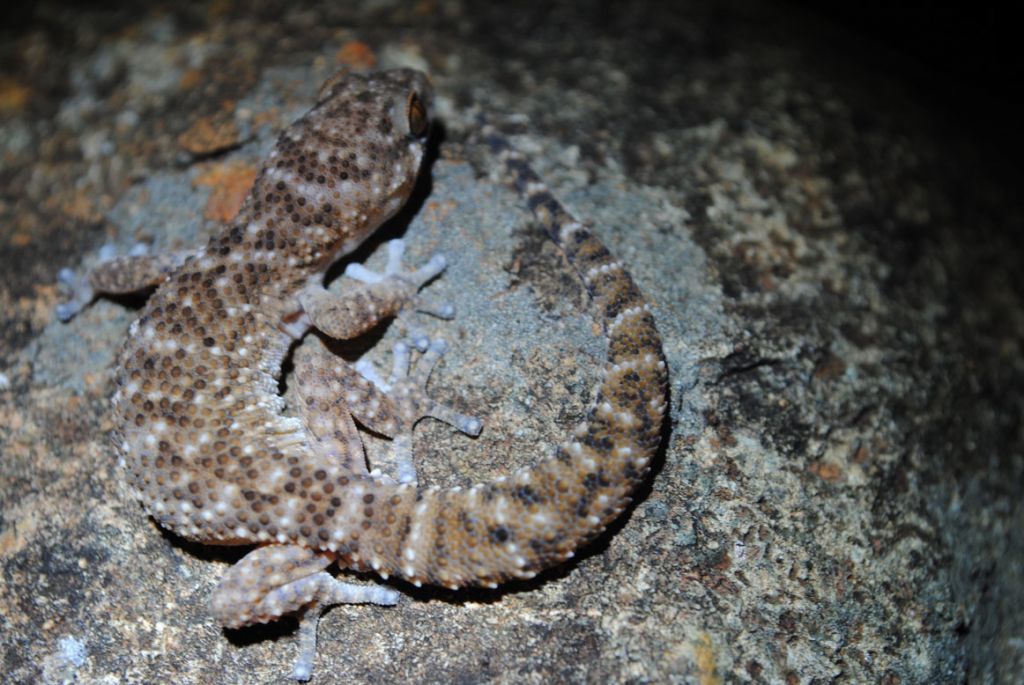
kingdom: Animalia
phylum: Chordata
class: Squamata
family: Gekkonidae
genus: Pachydactylus
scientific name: Pachydactylus capensis
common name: Cape gecko
